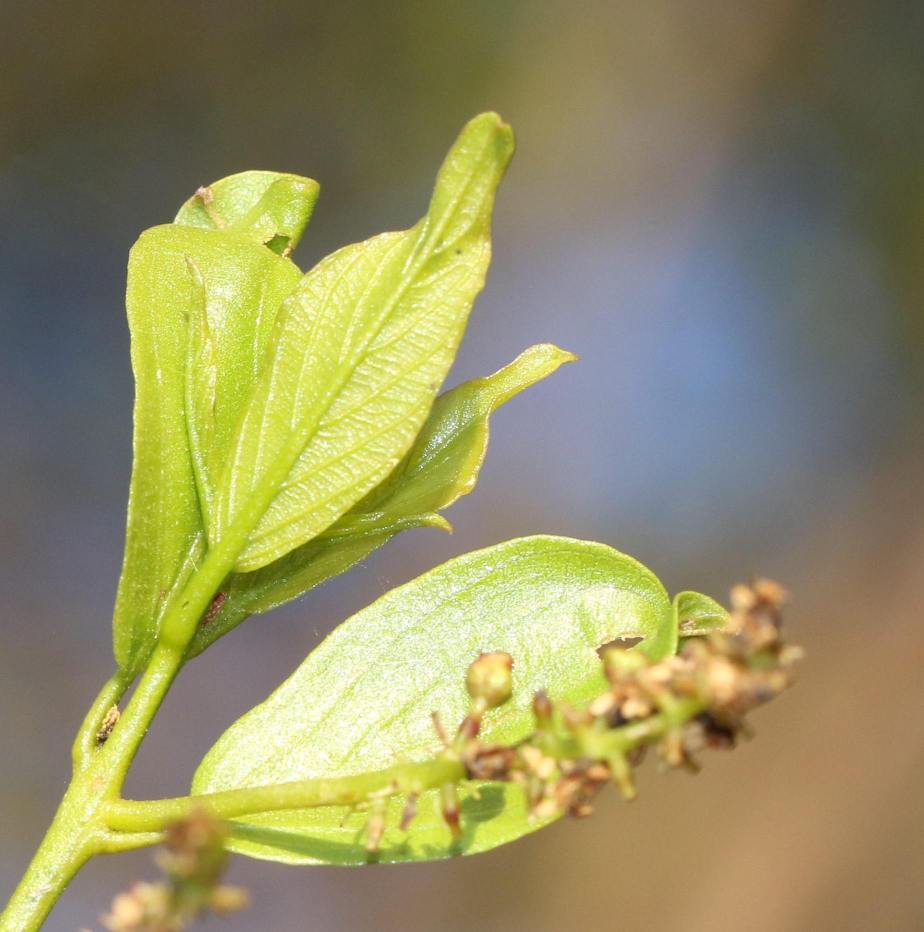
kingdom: Plantae
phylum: Tracheophyta
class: Magnoliopsida
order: Myrtales
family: Combretaceae
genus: Combretum
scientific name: Combretum apiculatum
